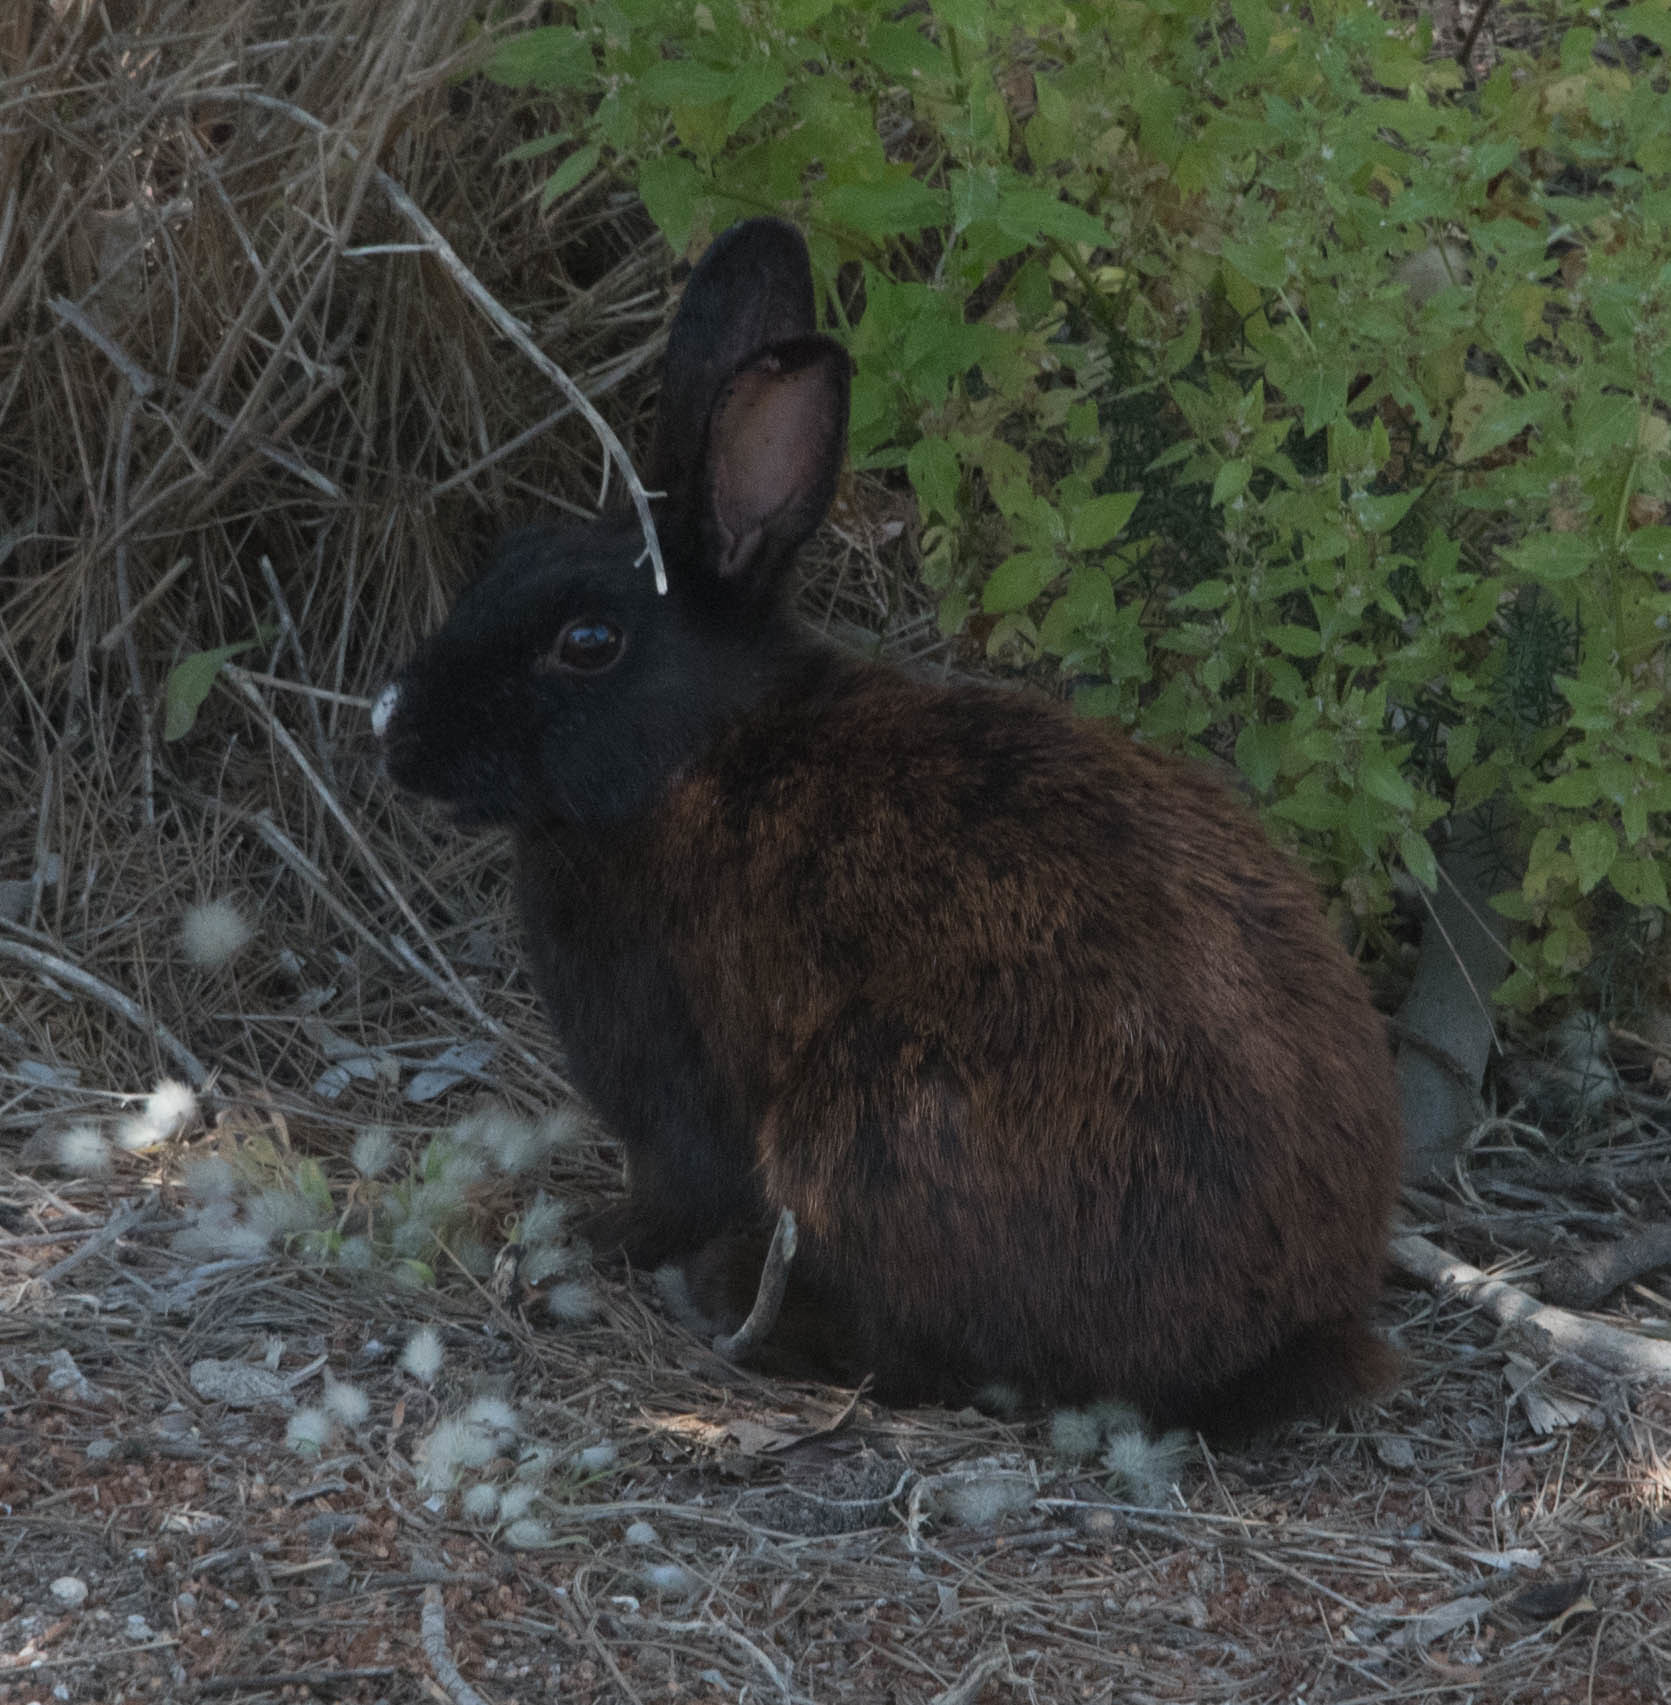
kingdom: Animalia
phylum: Chordata
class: Mammalia
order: Lagomorpha
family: Leporidae
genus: Oryctolagus
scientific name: Oryctolagus cuniculus
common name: European rabbit
